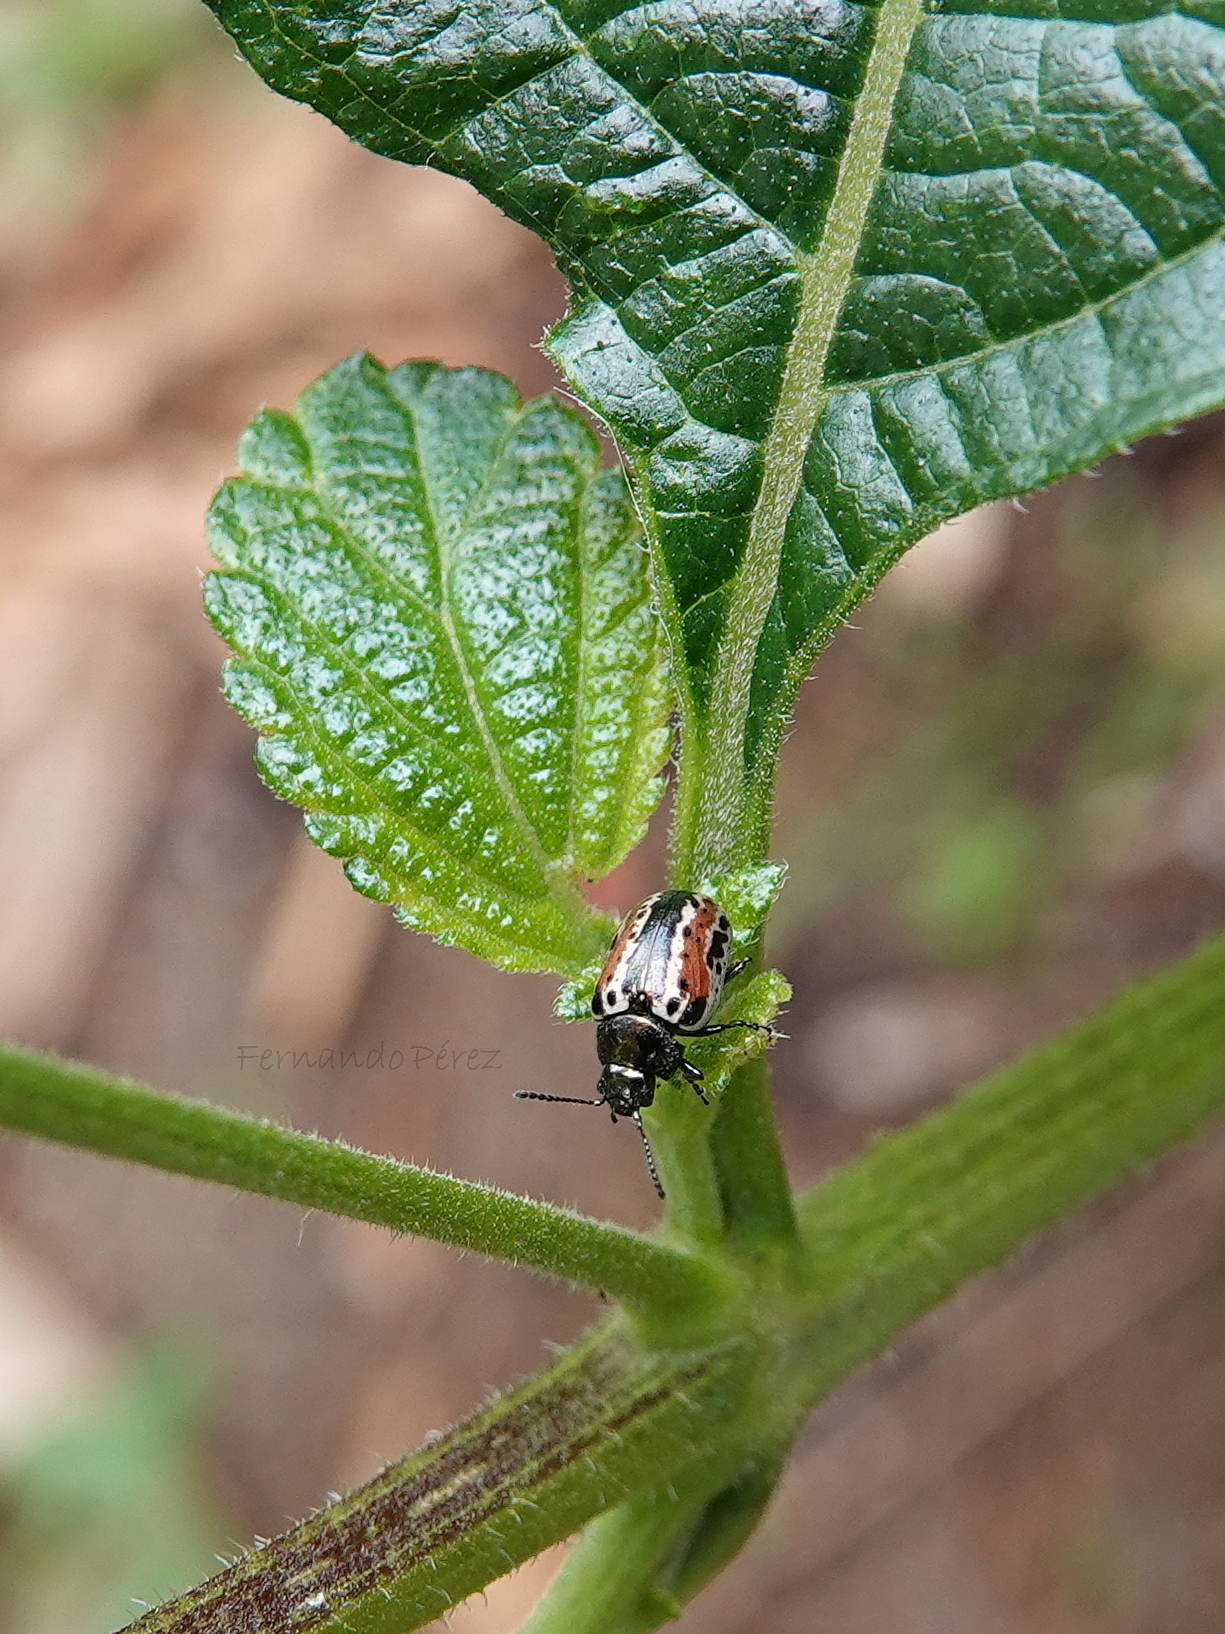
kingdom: Animalia
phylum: Arthropoda
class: Insecta
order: Coleoptera
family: Chrysomelidae
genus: Calligrapha
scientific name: Calligrapha
